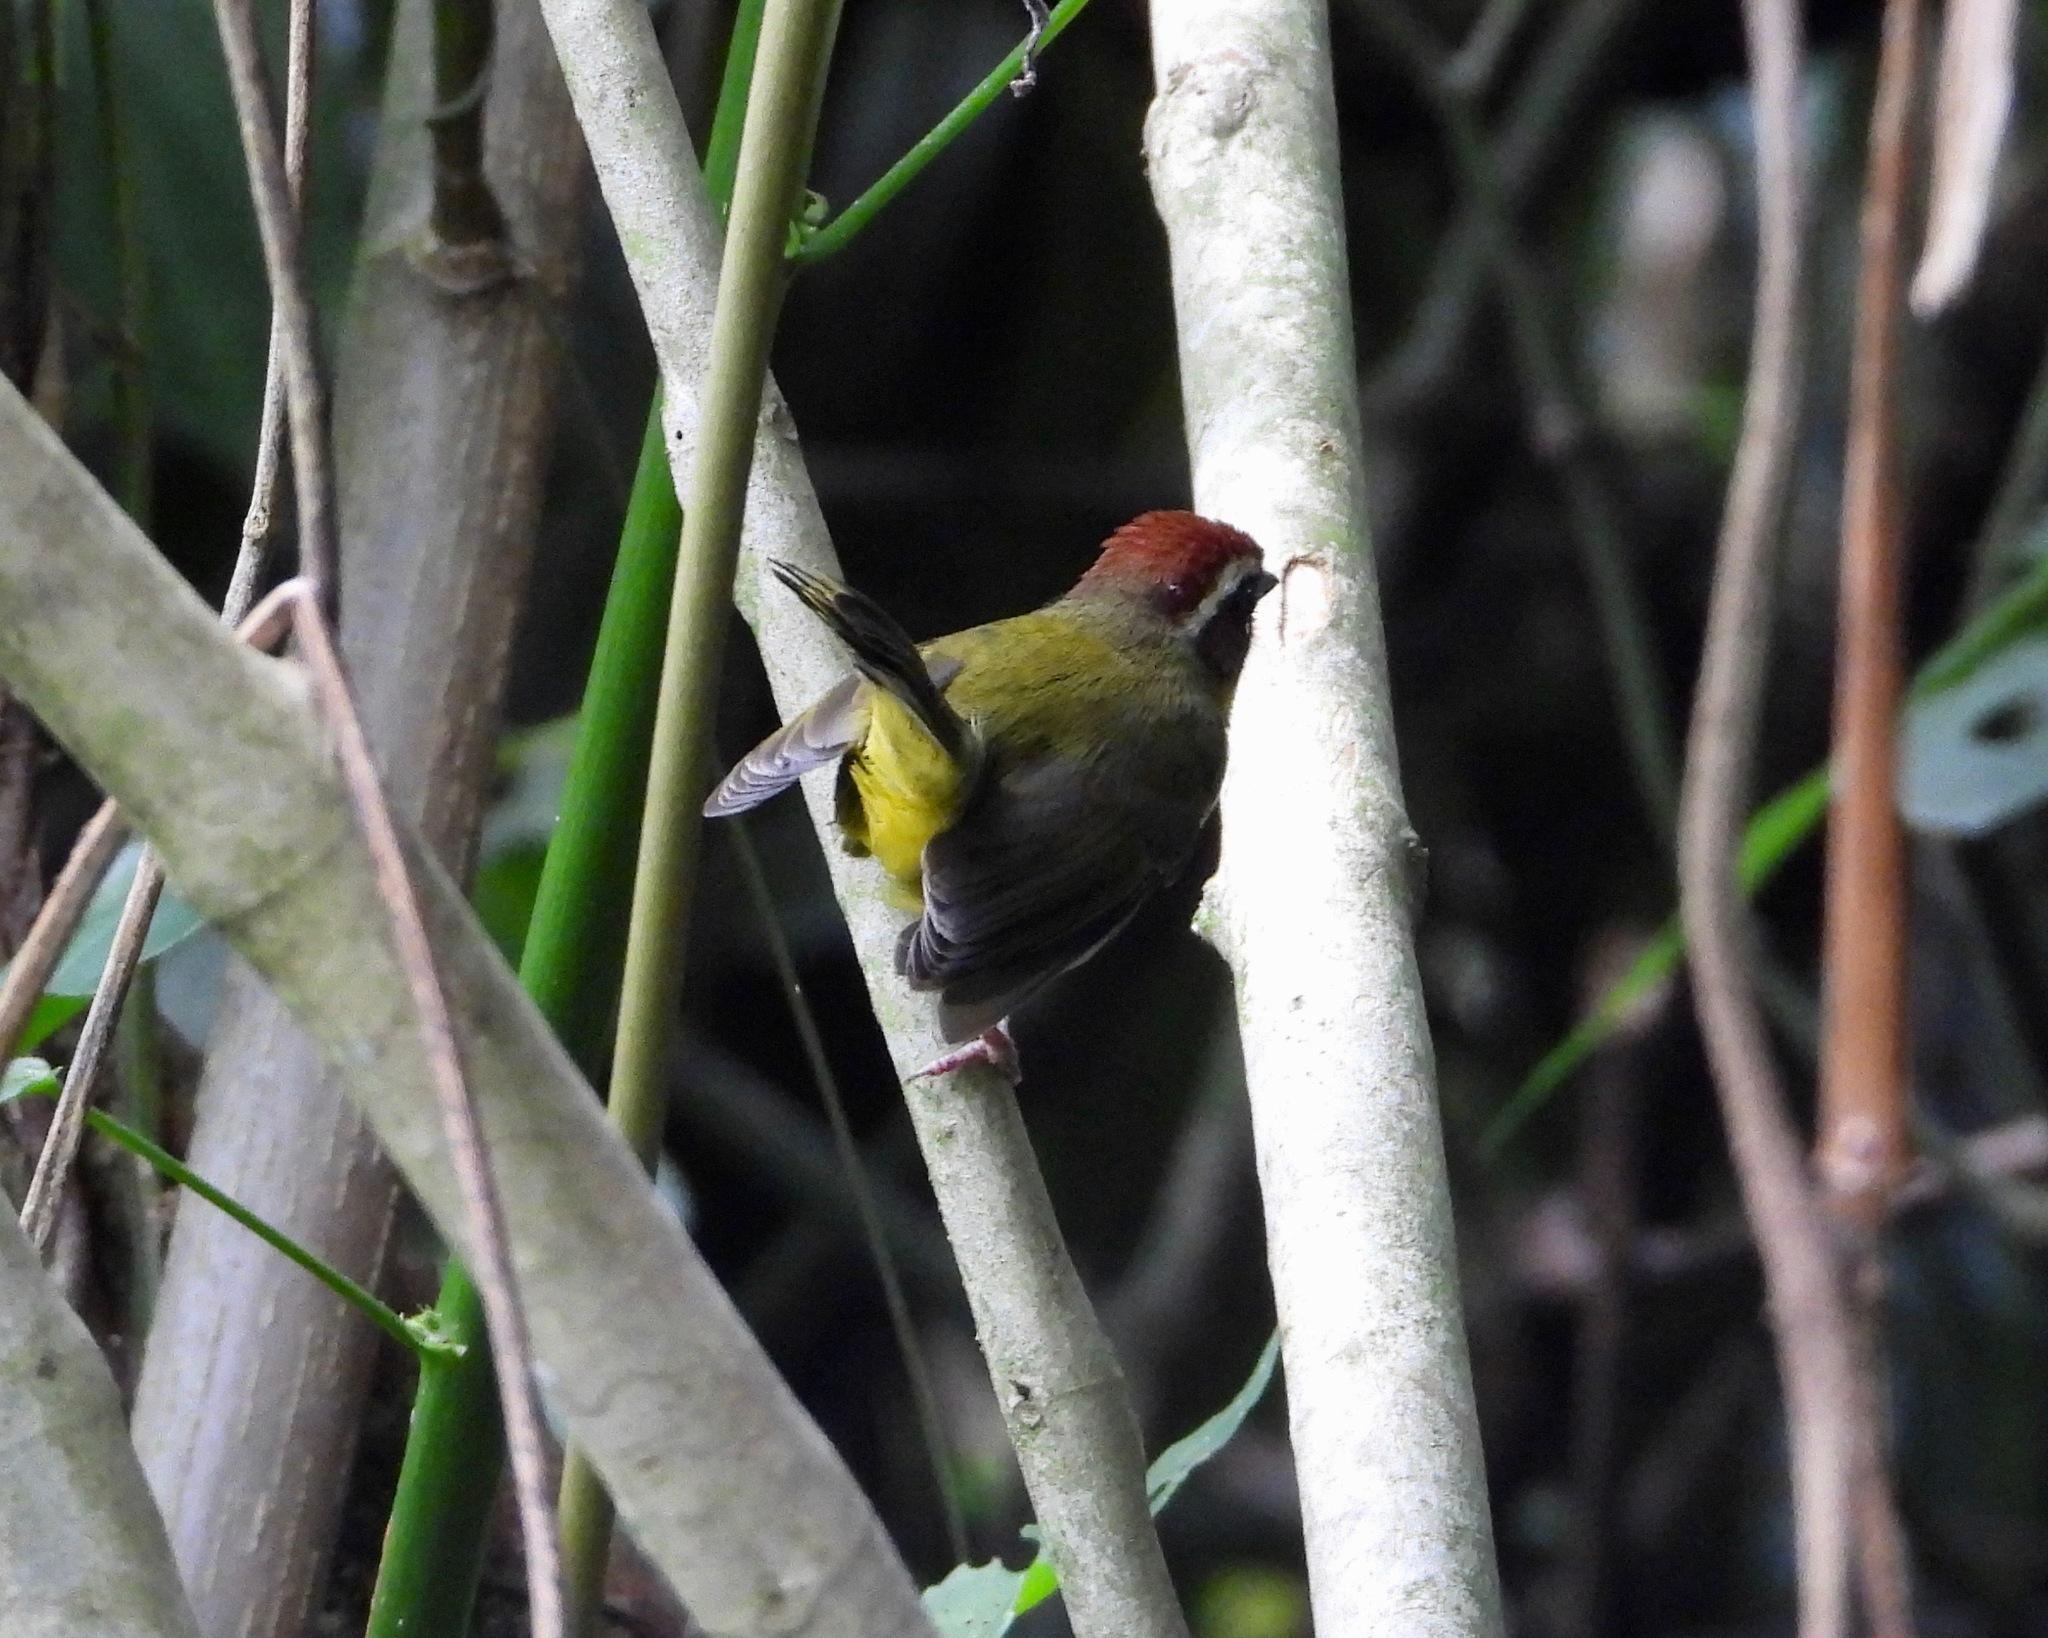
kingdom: Animalia
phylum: Chordata
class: Aves
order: Passeriformes
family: Parulidae
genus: Basileuterus
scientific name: Basileuterus rufifrons
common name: Rufous-capped warbler
